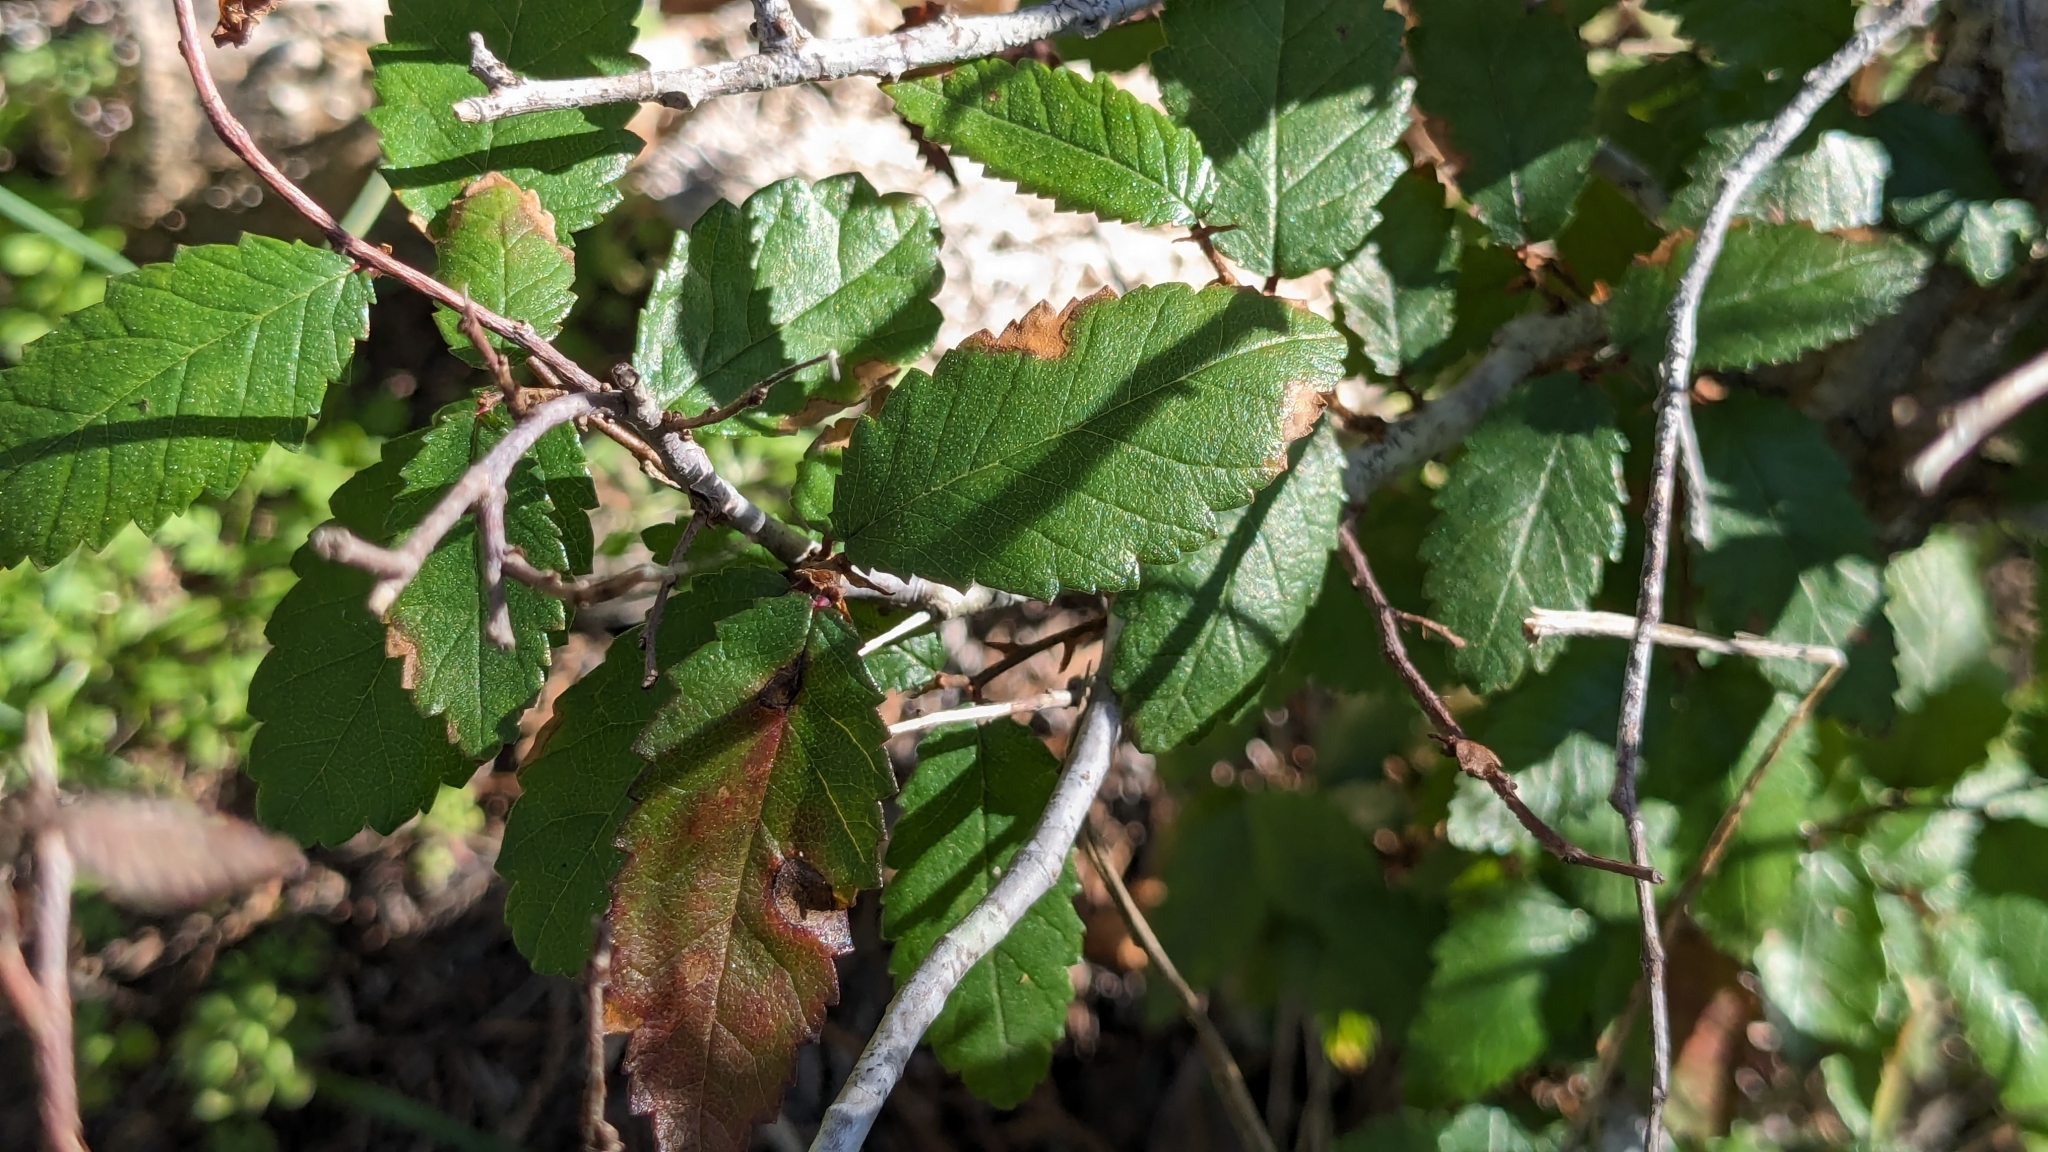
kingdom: Plantae
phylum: Tracheophyta
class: Magnoliopsida
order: Rosales
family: Ulmaceae
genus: Ulmus
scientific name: Ulmus crassifolia
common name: Basket elm
